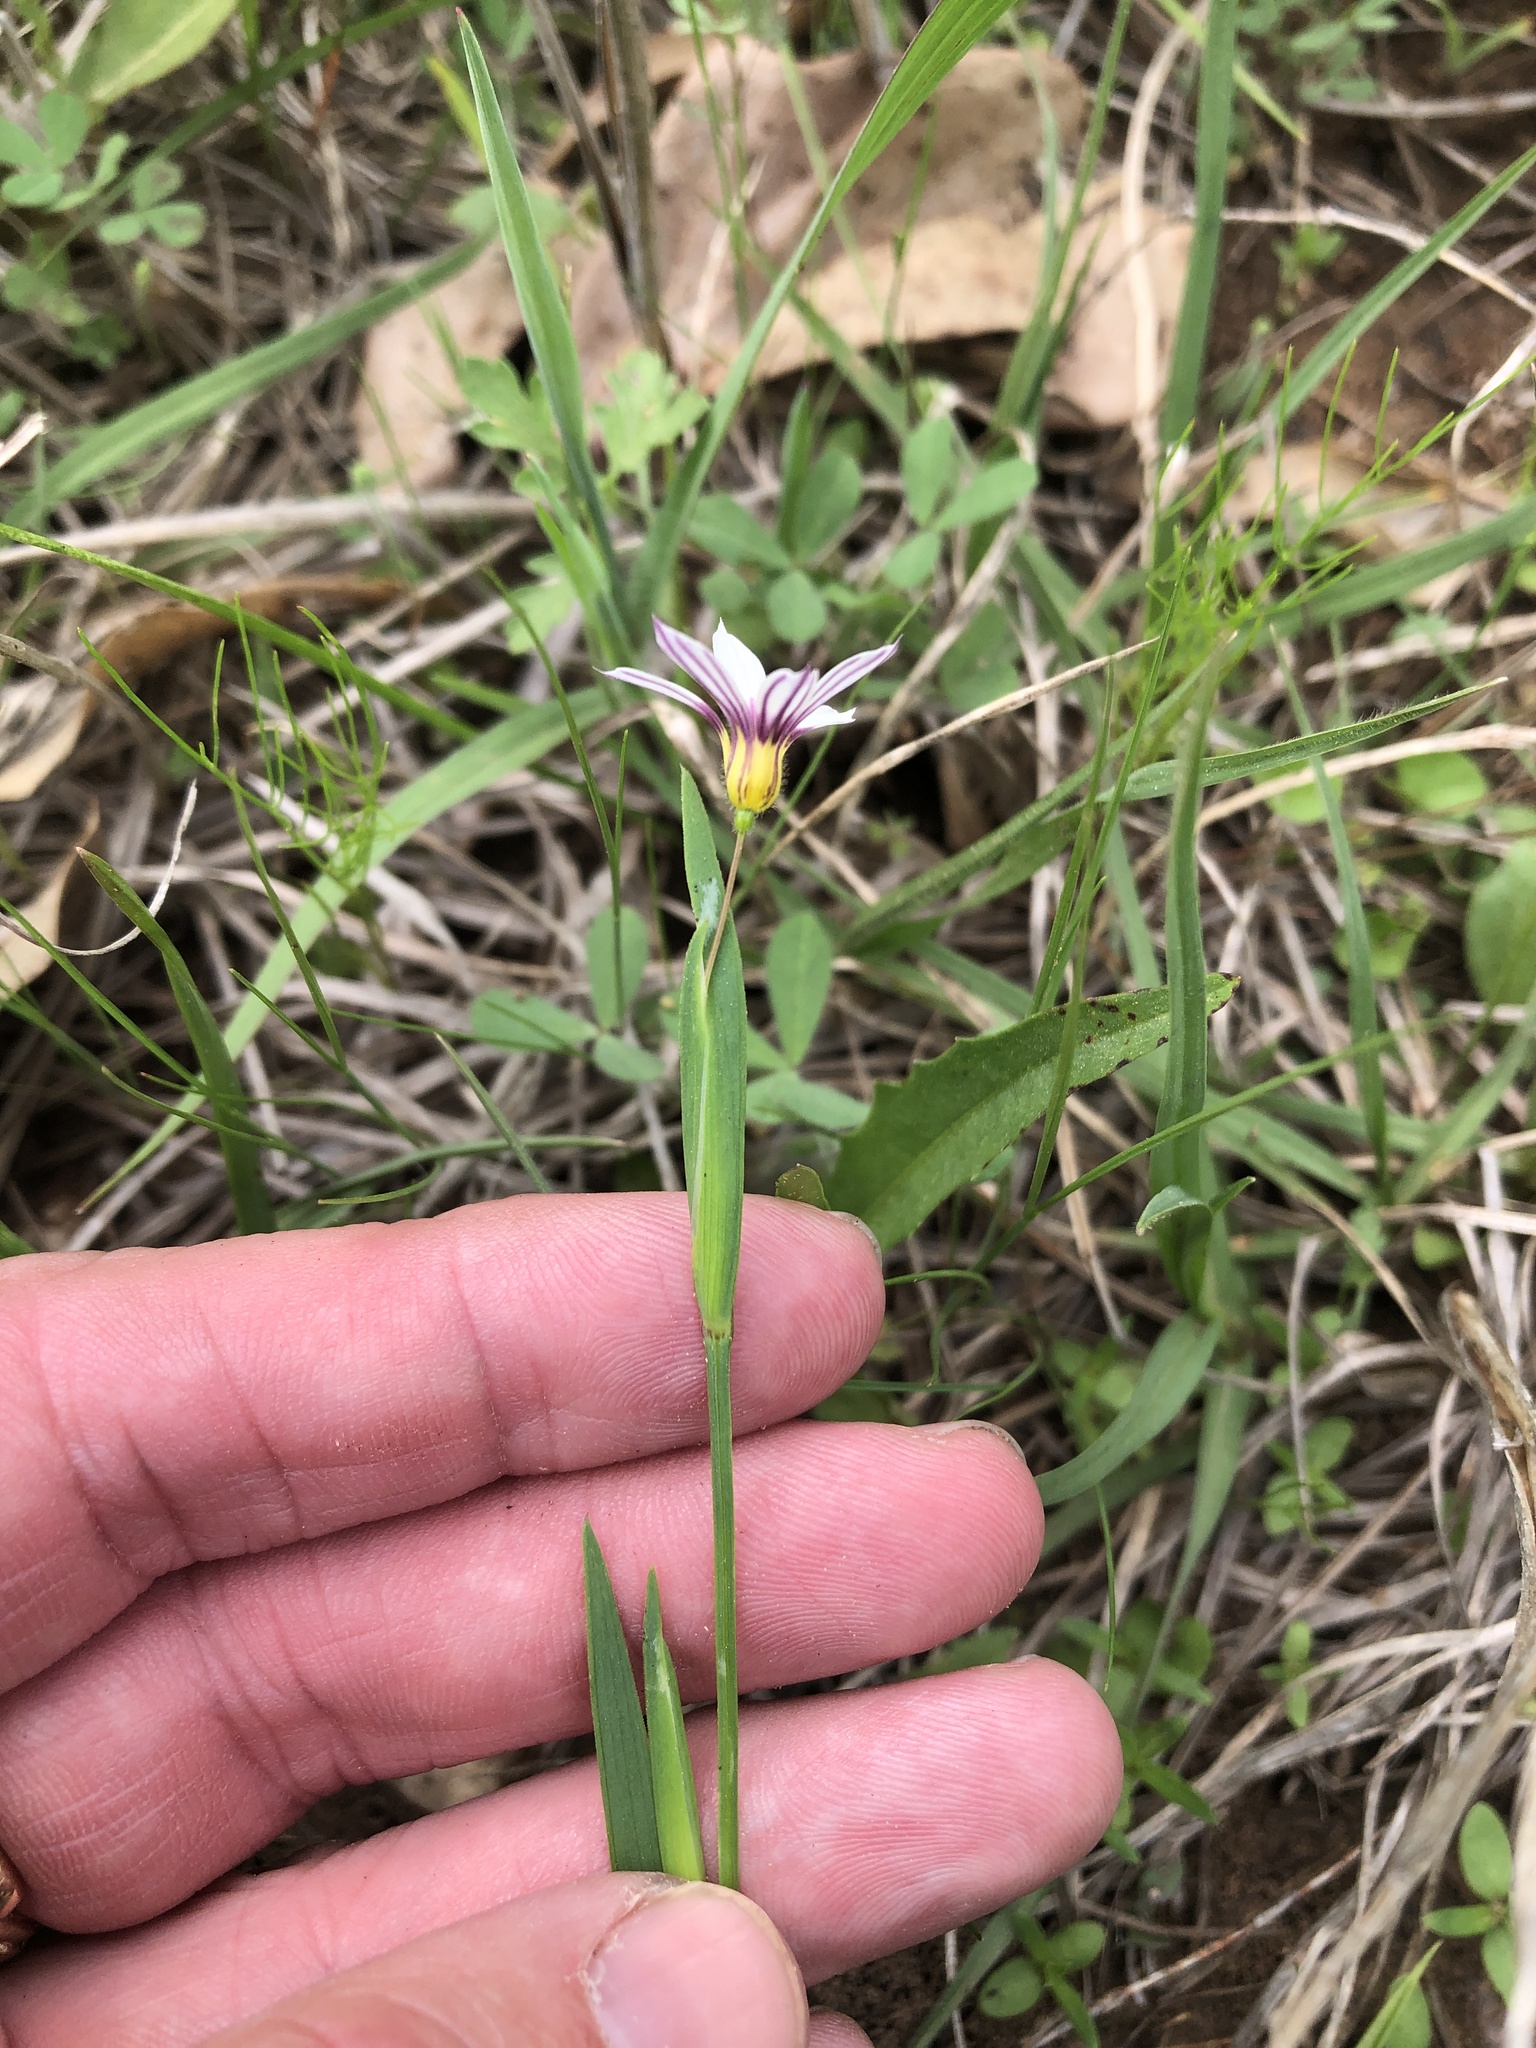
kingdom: Plantae
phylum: Tracheophyta
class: Liliopsida
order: Asparagales
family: Iridaceae
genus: Sisyrinchium
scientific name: Sisyrinchium micranthum
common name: Bermuda pigroot
